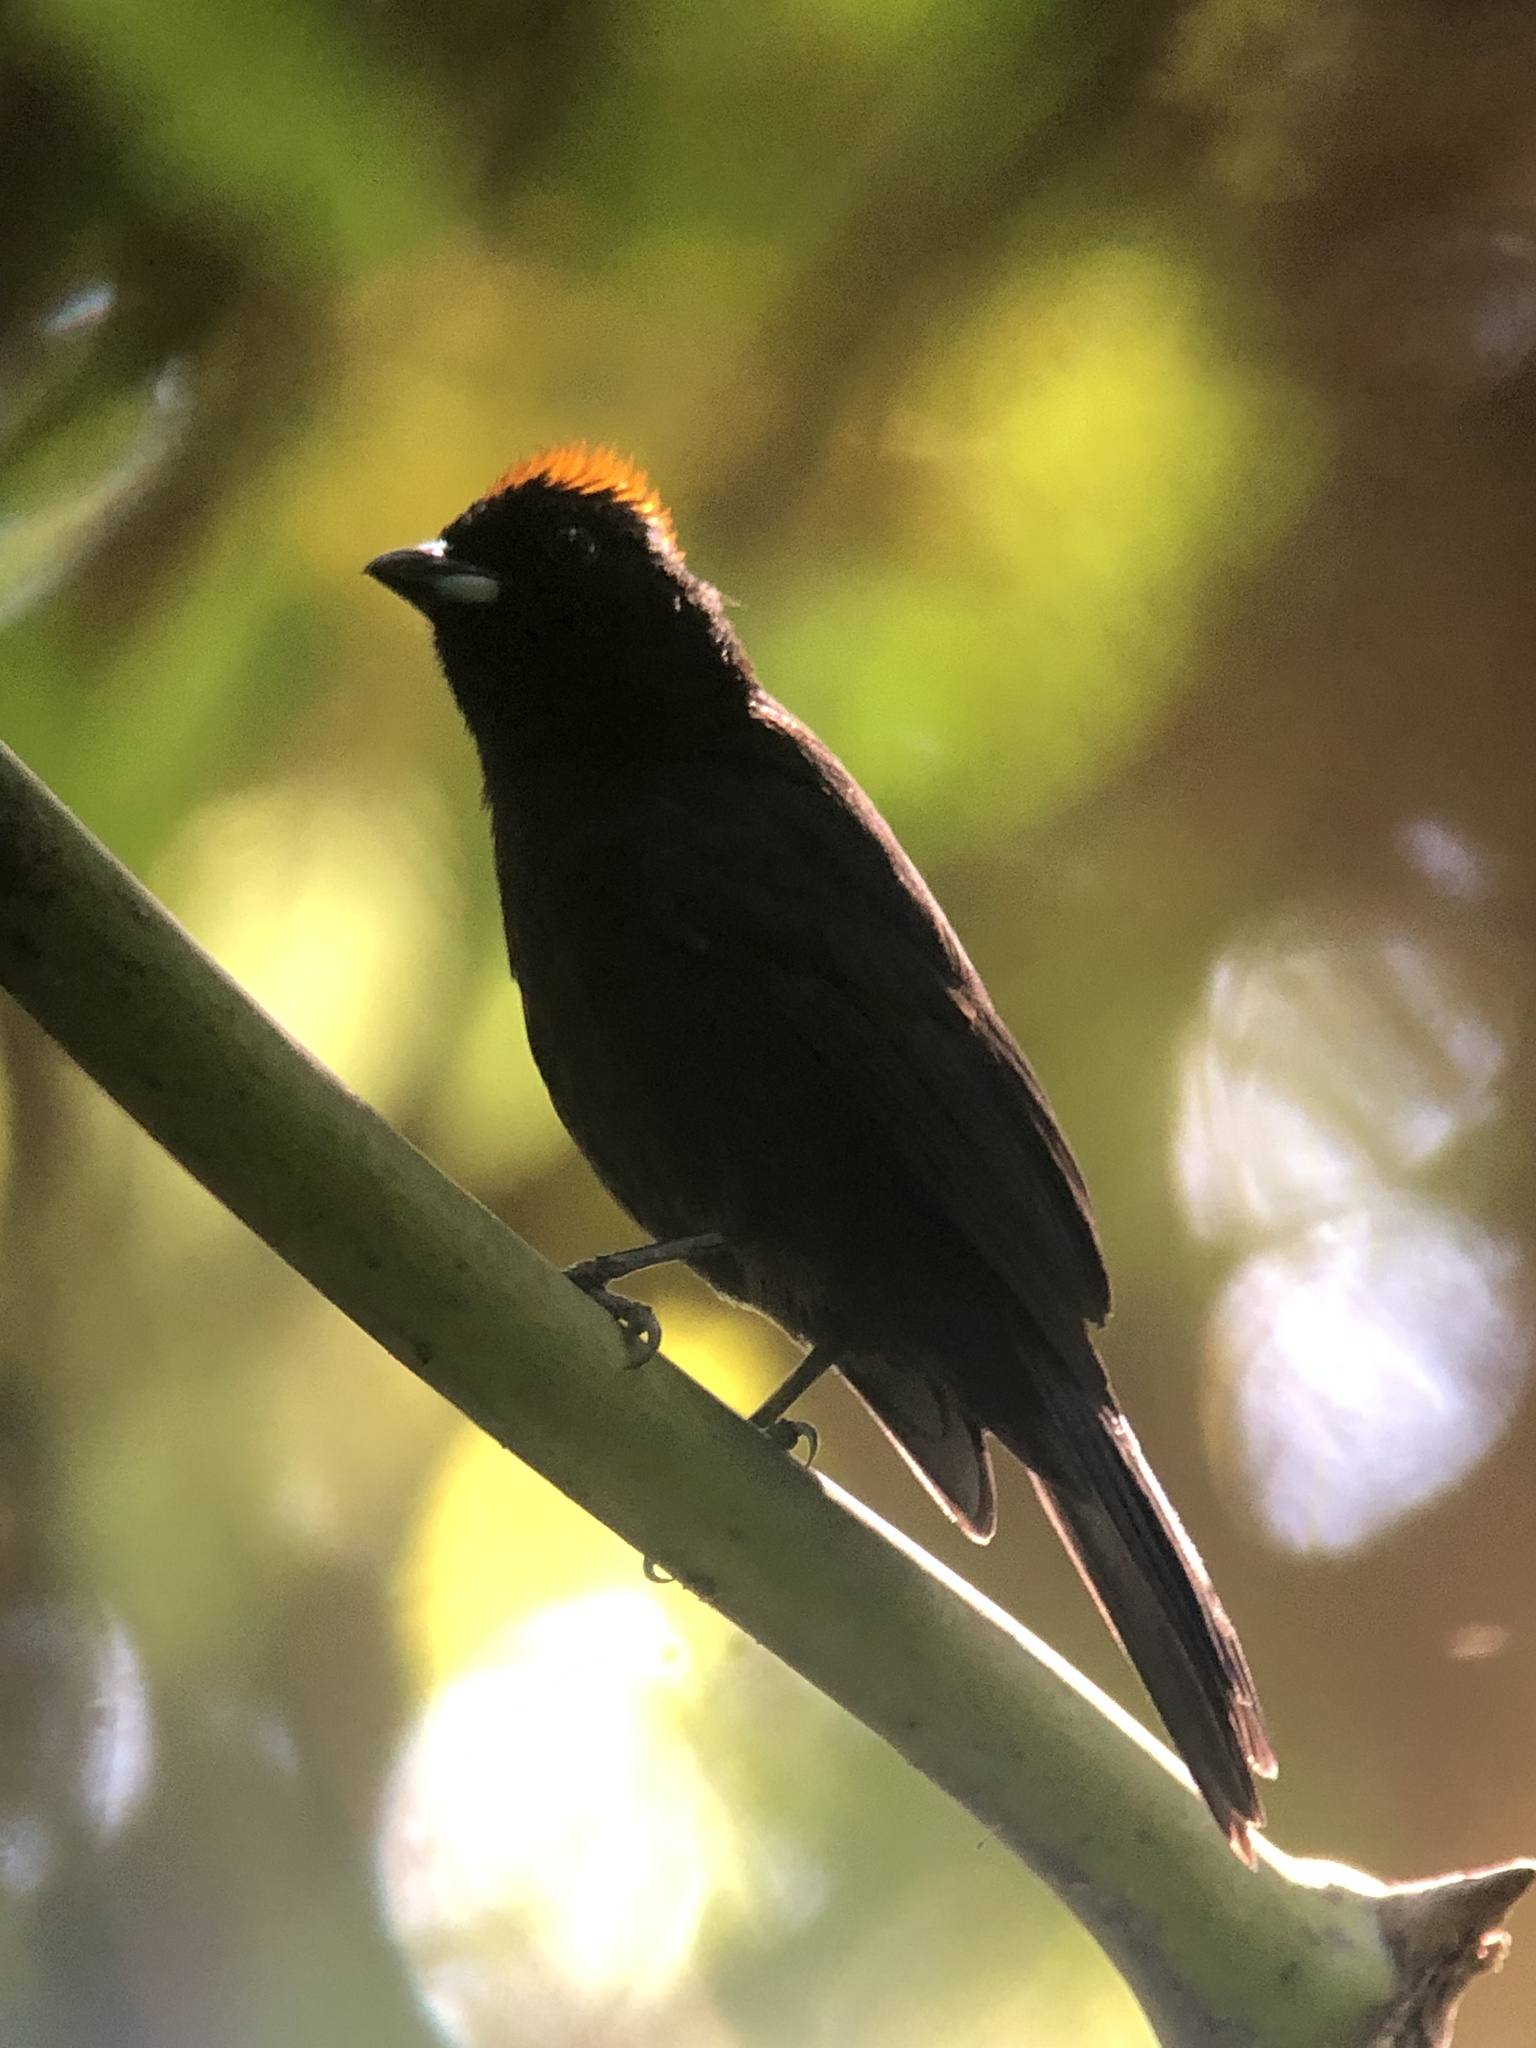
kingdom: Animalia
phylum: Chordata
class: Aves
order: Passeriformes
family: Thraupidae
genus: Tachyphonus
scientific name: Tachyphonus delatrii
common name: Tawny-crested tanager
